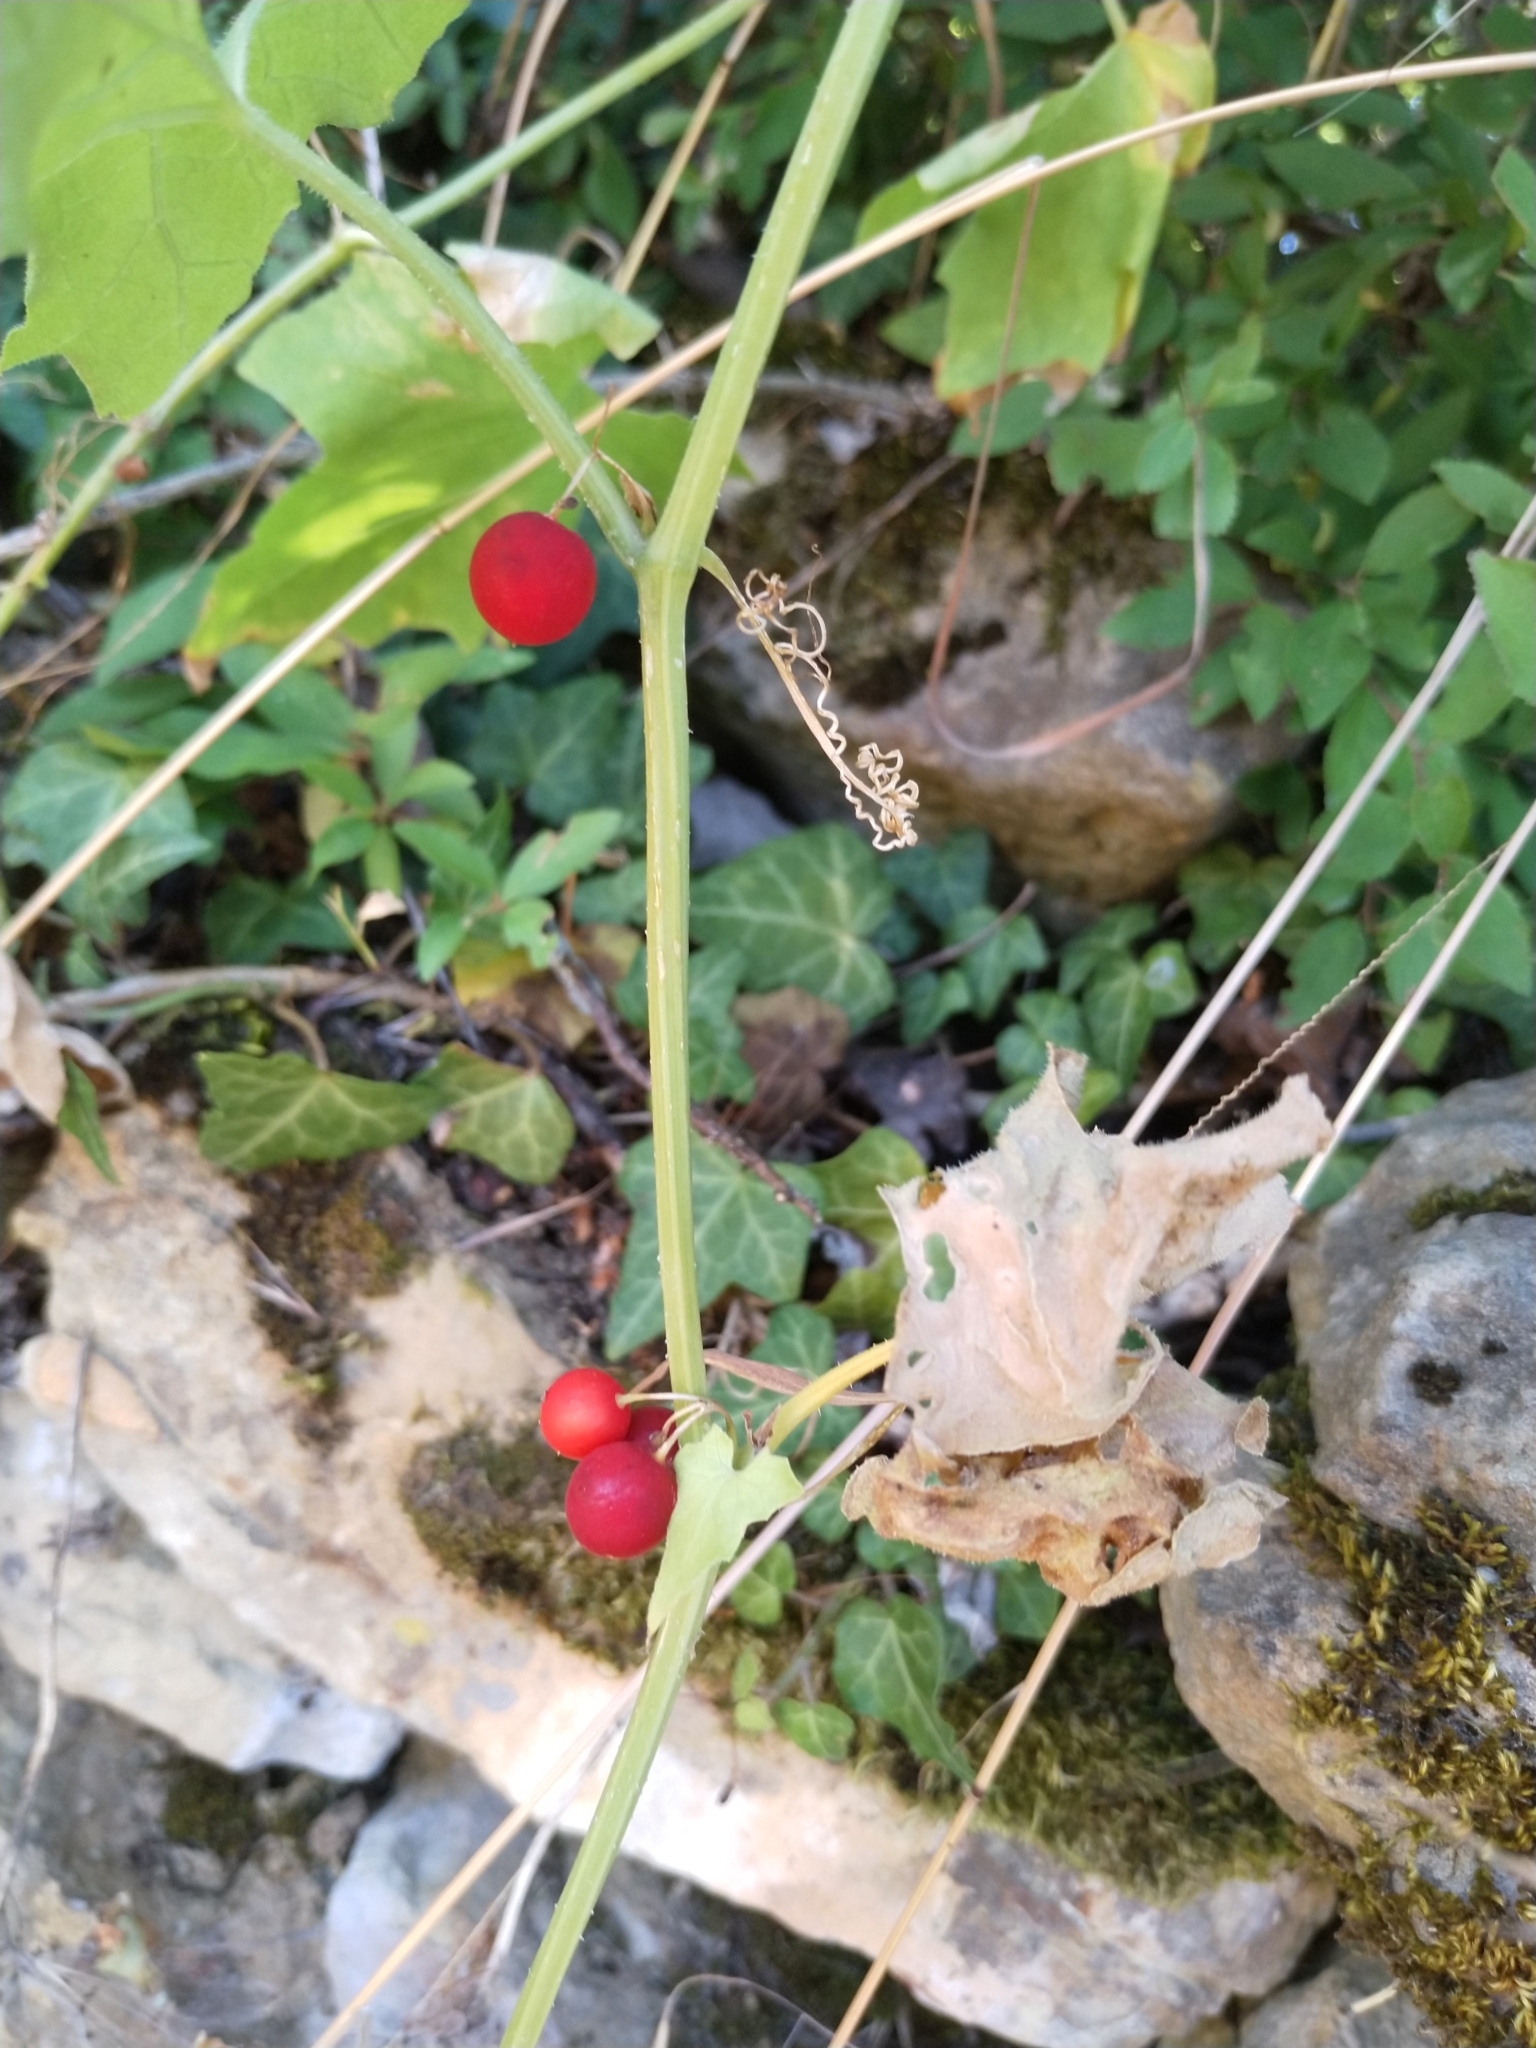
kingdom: Plantae
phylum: Tracheophyta
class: Magnoliopsida
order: Cucurbitales
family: Cucurbitaceae
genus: Bryonia
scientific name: Bryonia cretica
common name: Cretan bryony
